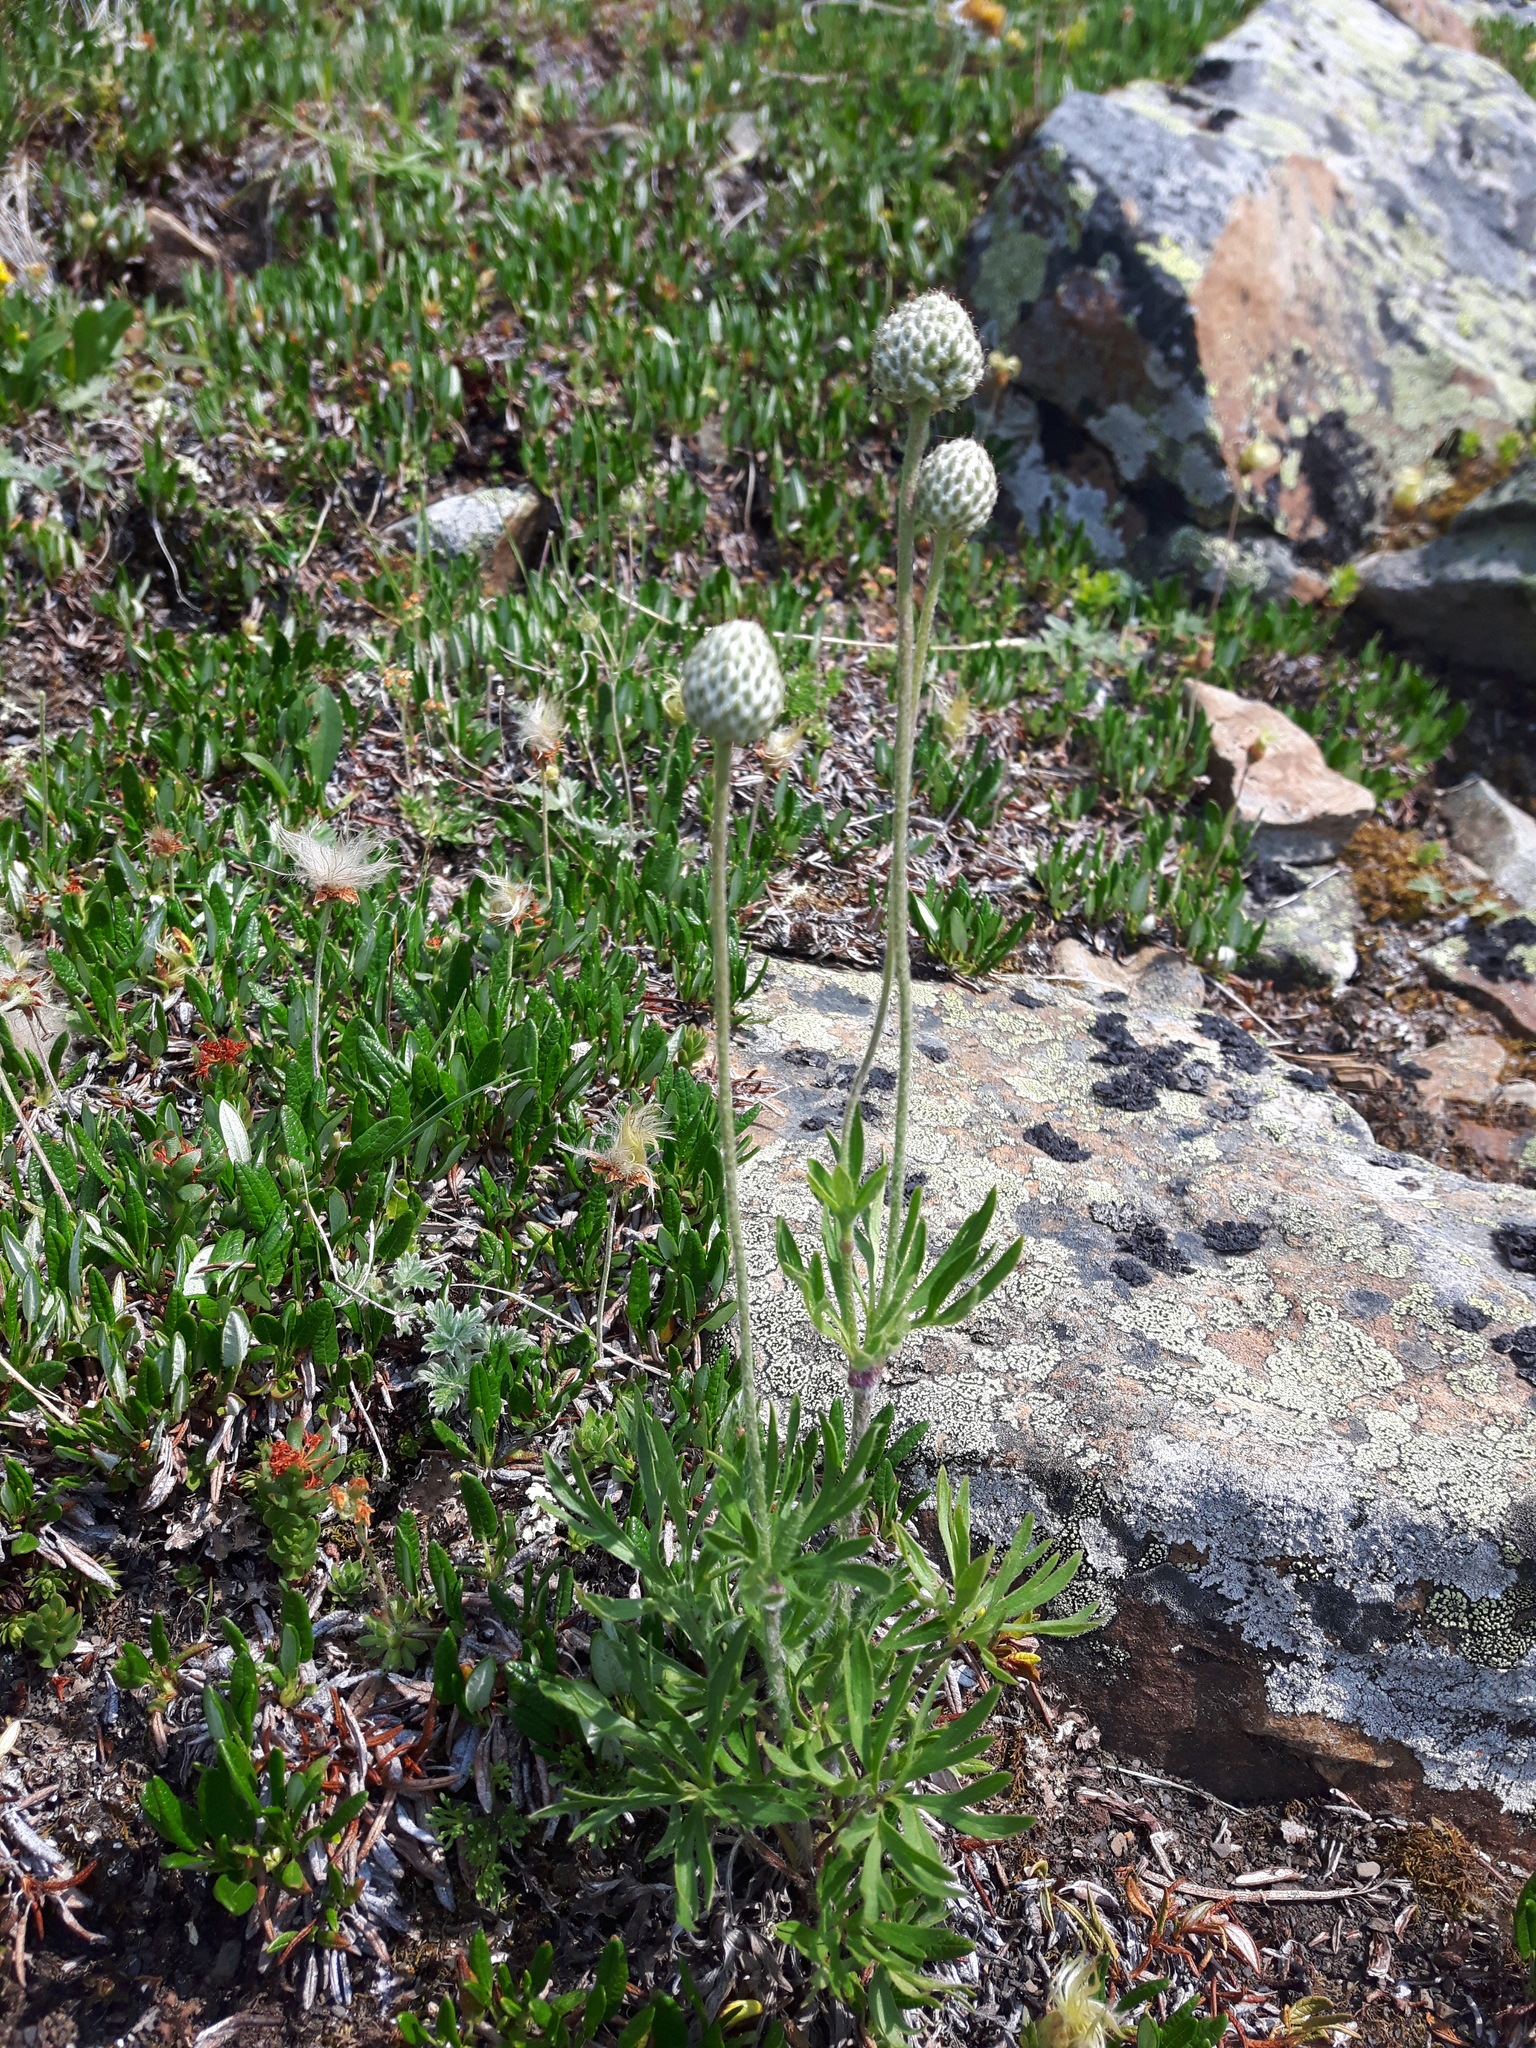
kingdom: Plantae
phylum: Tracheophyta
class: Magnoliopsida
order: Ranunculales
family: Ranunculaceae
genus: Anemone
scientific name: Anemone multifida
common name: Bird's-foot anemone
